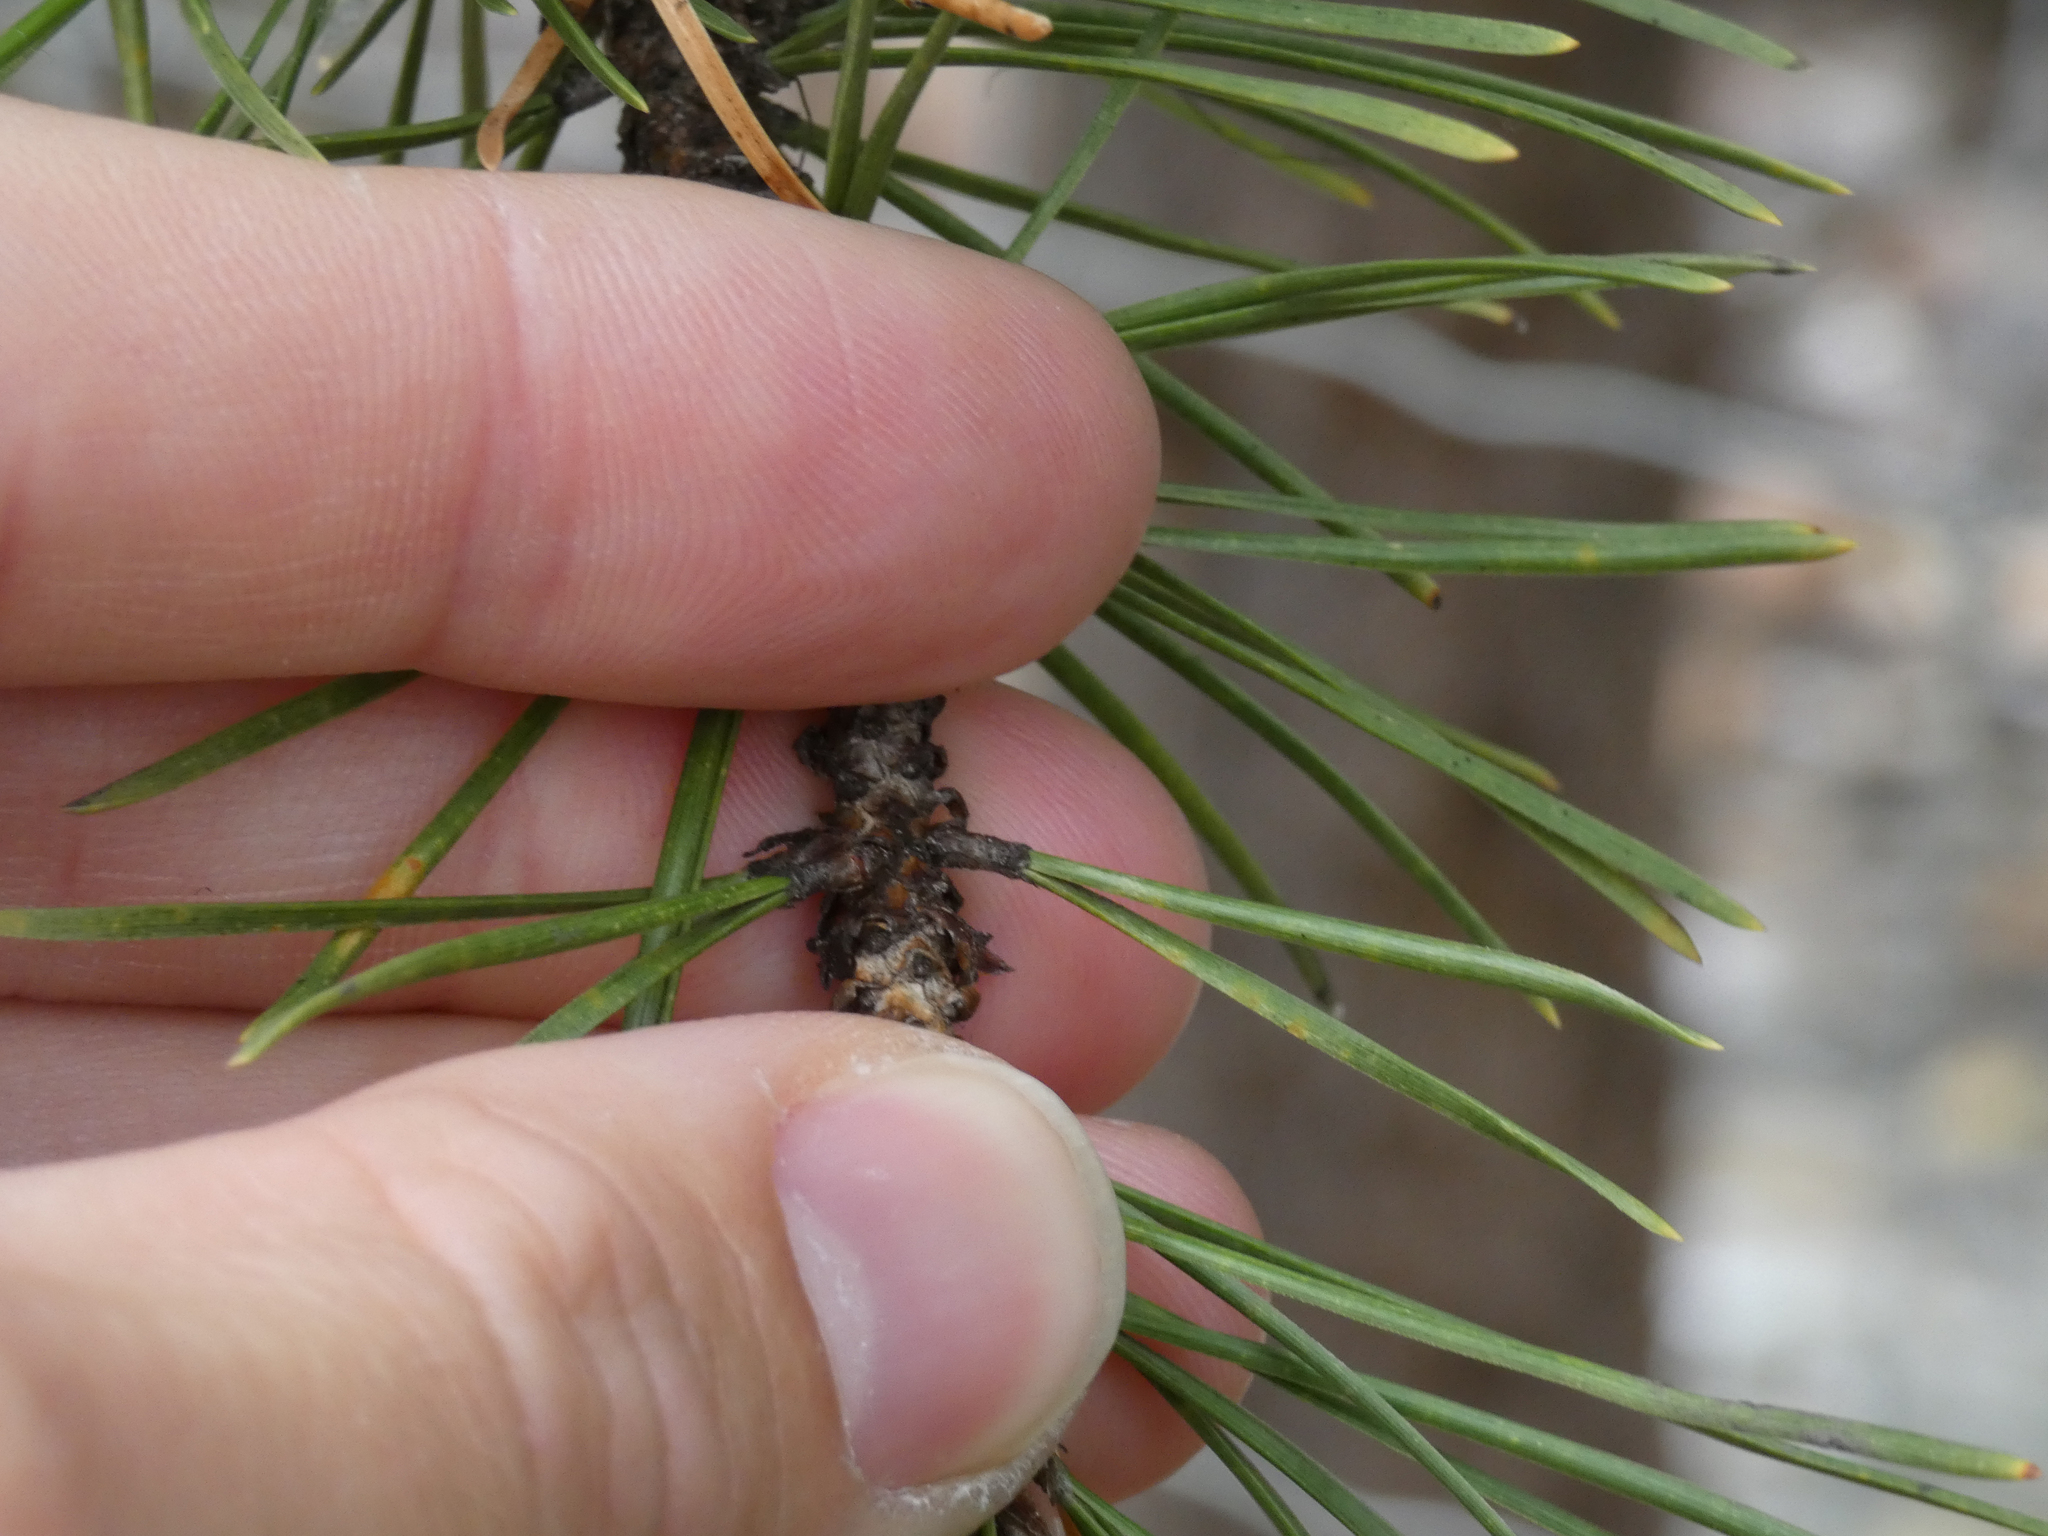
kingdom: Plantae
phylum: Tracheophyta
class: Pinopsida
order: Pinales
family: Pinaceae
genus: Pinus
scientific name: Pinus contorta
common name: Lodgepole pine
